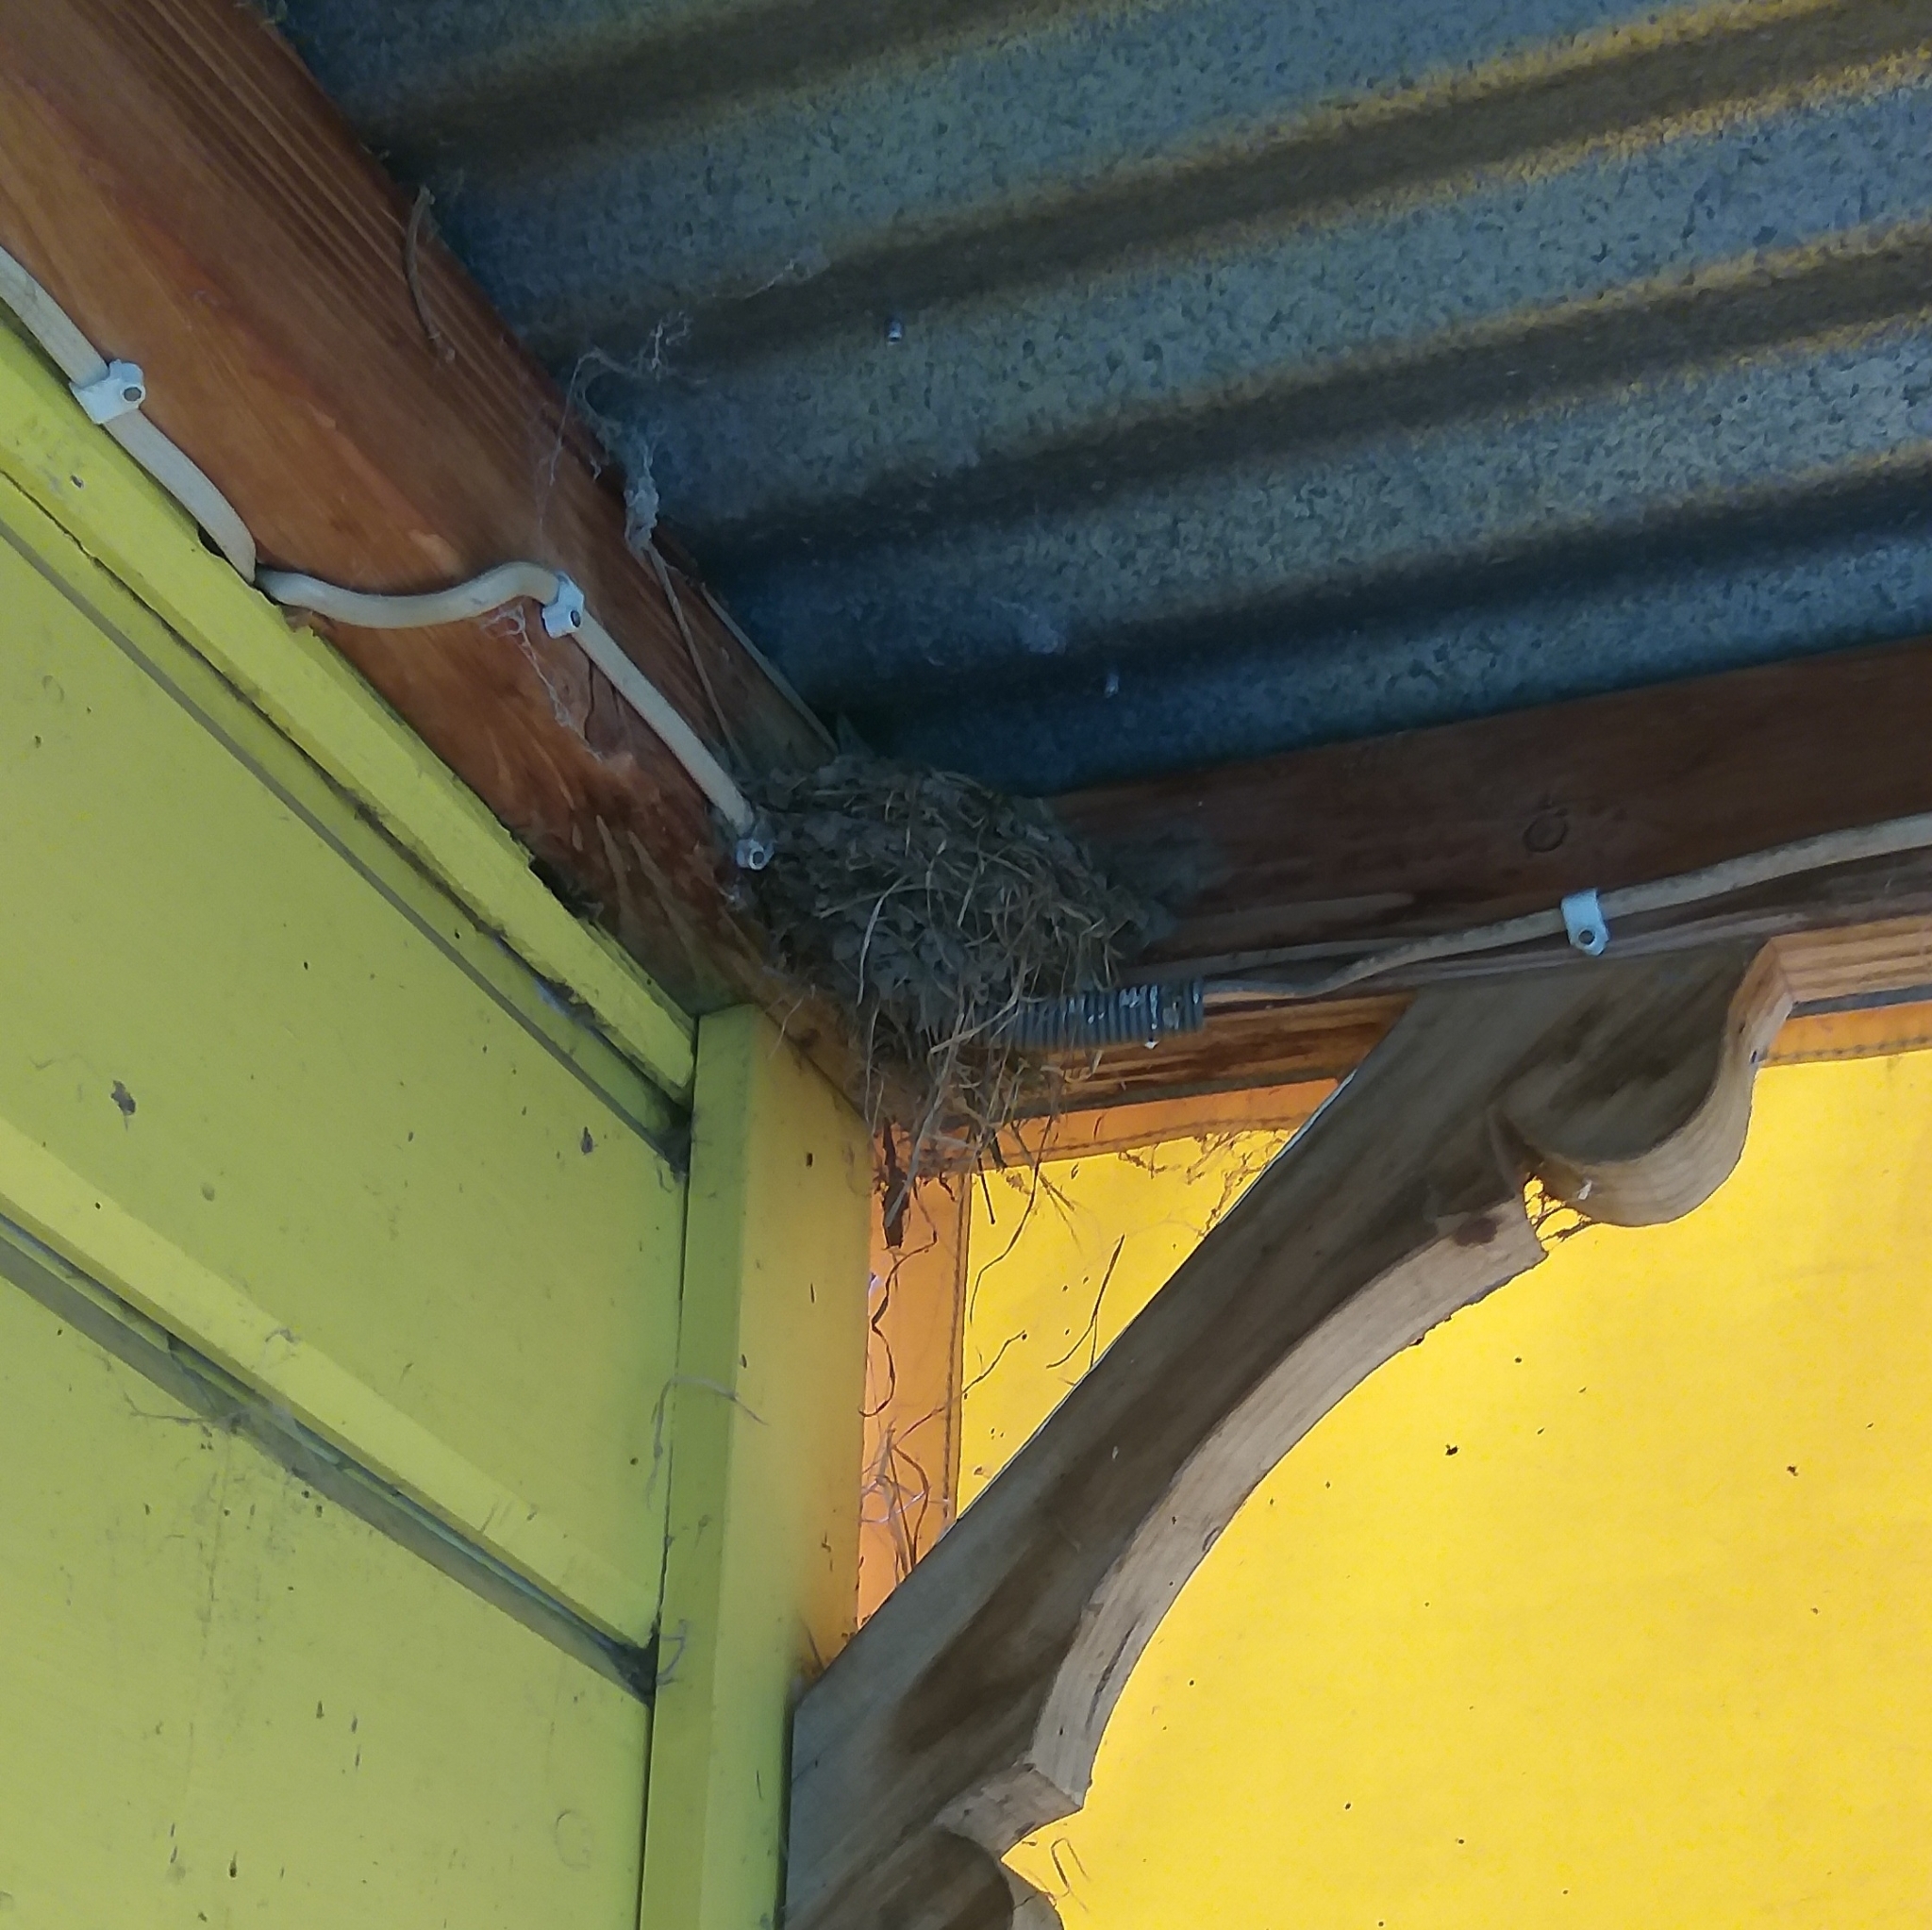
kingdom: Animalia
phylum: Chordata
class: Aves
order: Passeriformes
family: Hirundinidae
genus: Hirundo
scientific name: Hirundo neoxena
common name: Welcome swallow
